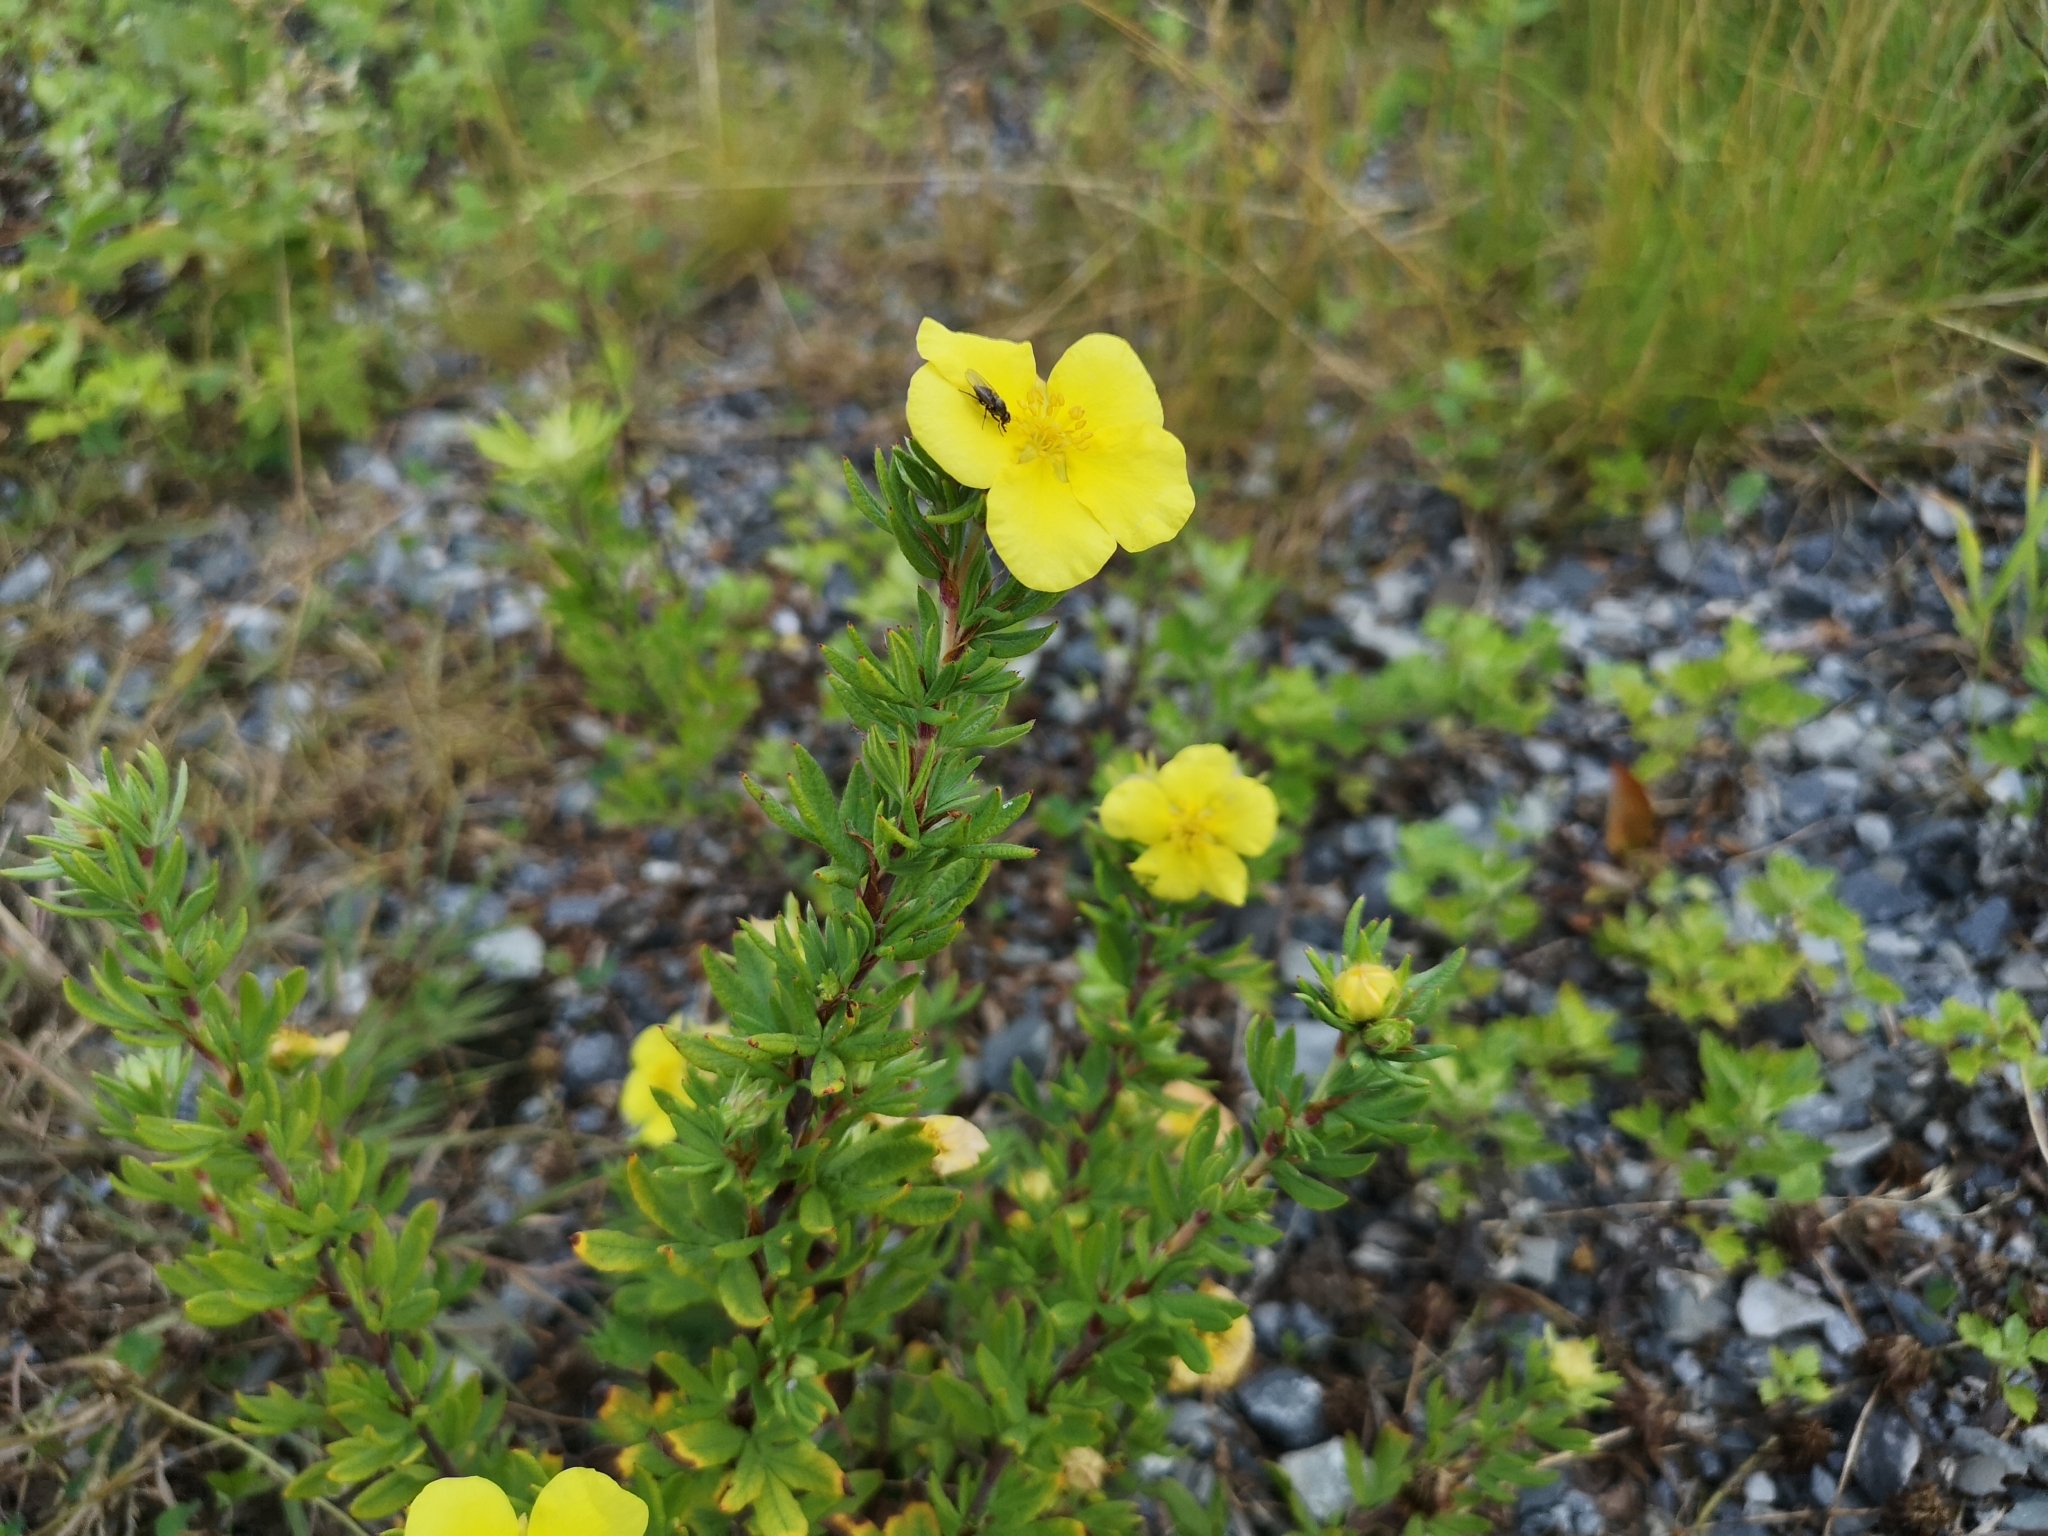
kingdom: Plantae
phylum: Tracheophyta
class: Magnoliopsida
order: Rosales
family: Rosaceae
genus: Dasiphora
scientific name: Dasiphora fruticosa
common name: Shrubby cinquefoil
